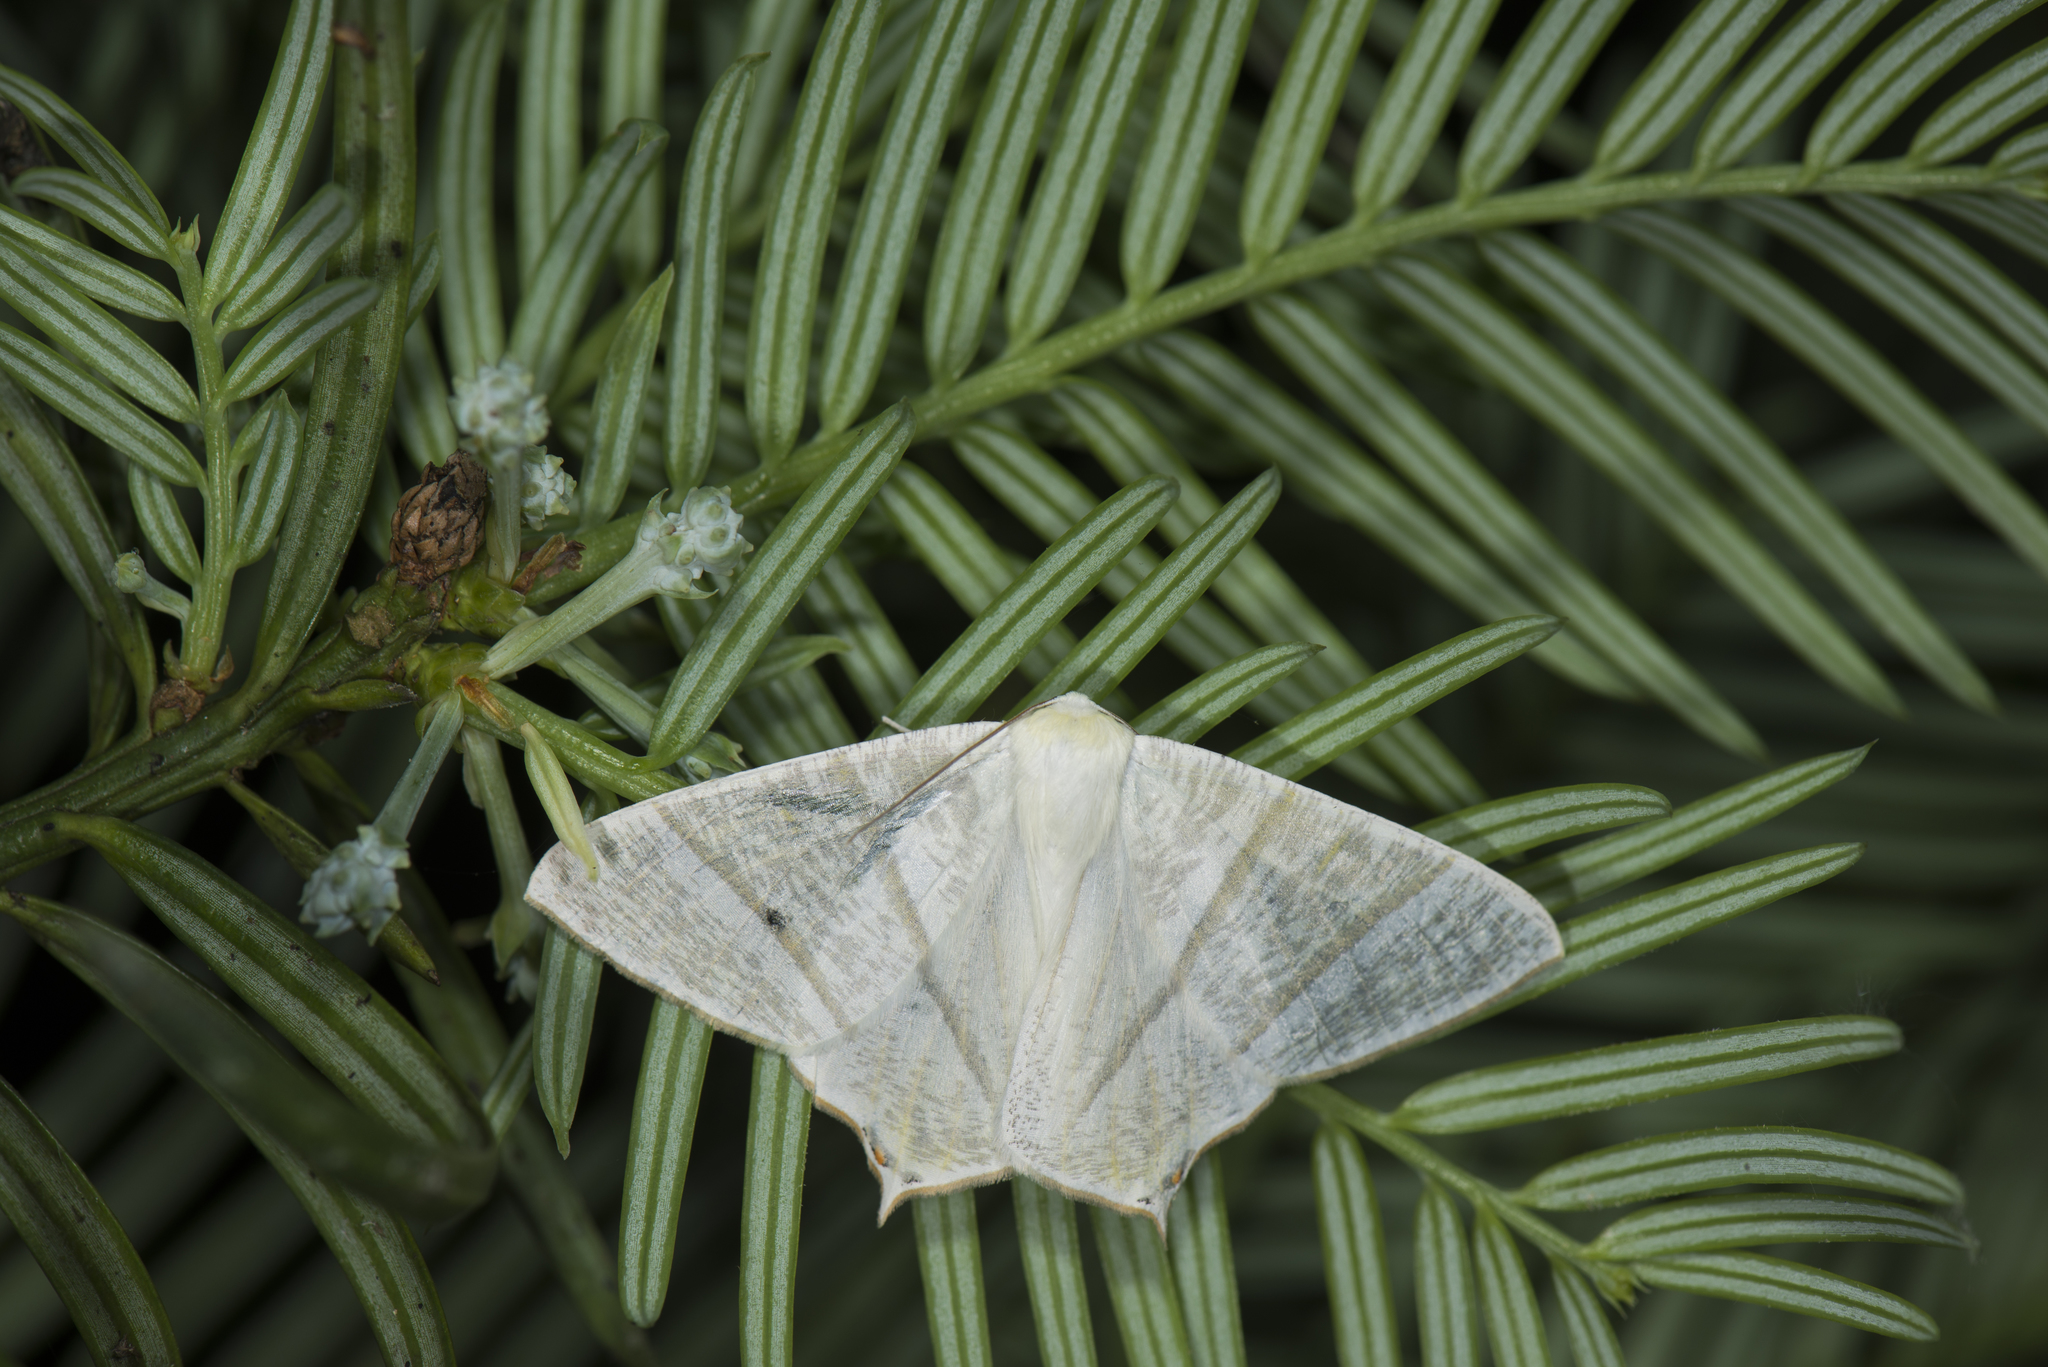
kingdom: Animalia
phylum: Arthropoda
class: Insecta
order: Lepidoptera
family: Geometridae
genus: Ourapteryx
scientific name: Ourapteryx inspersa
